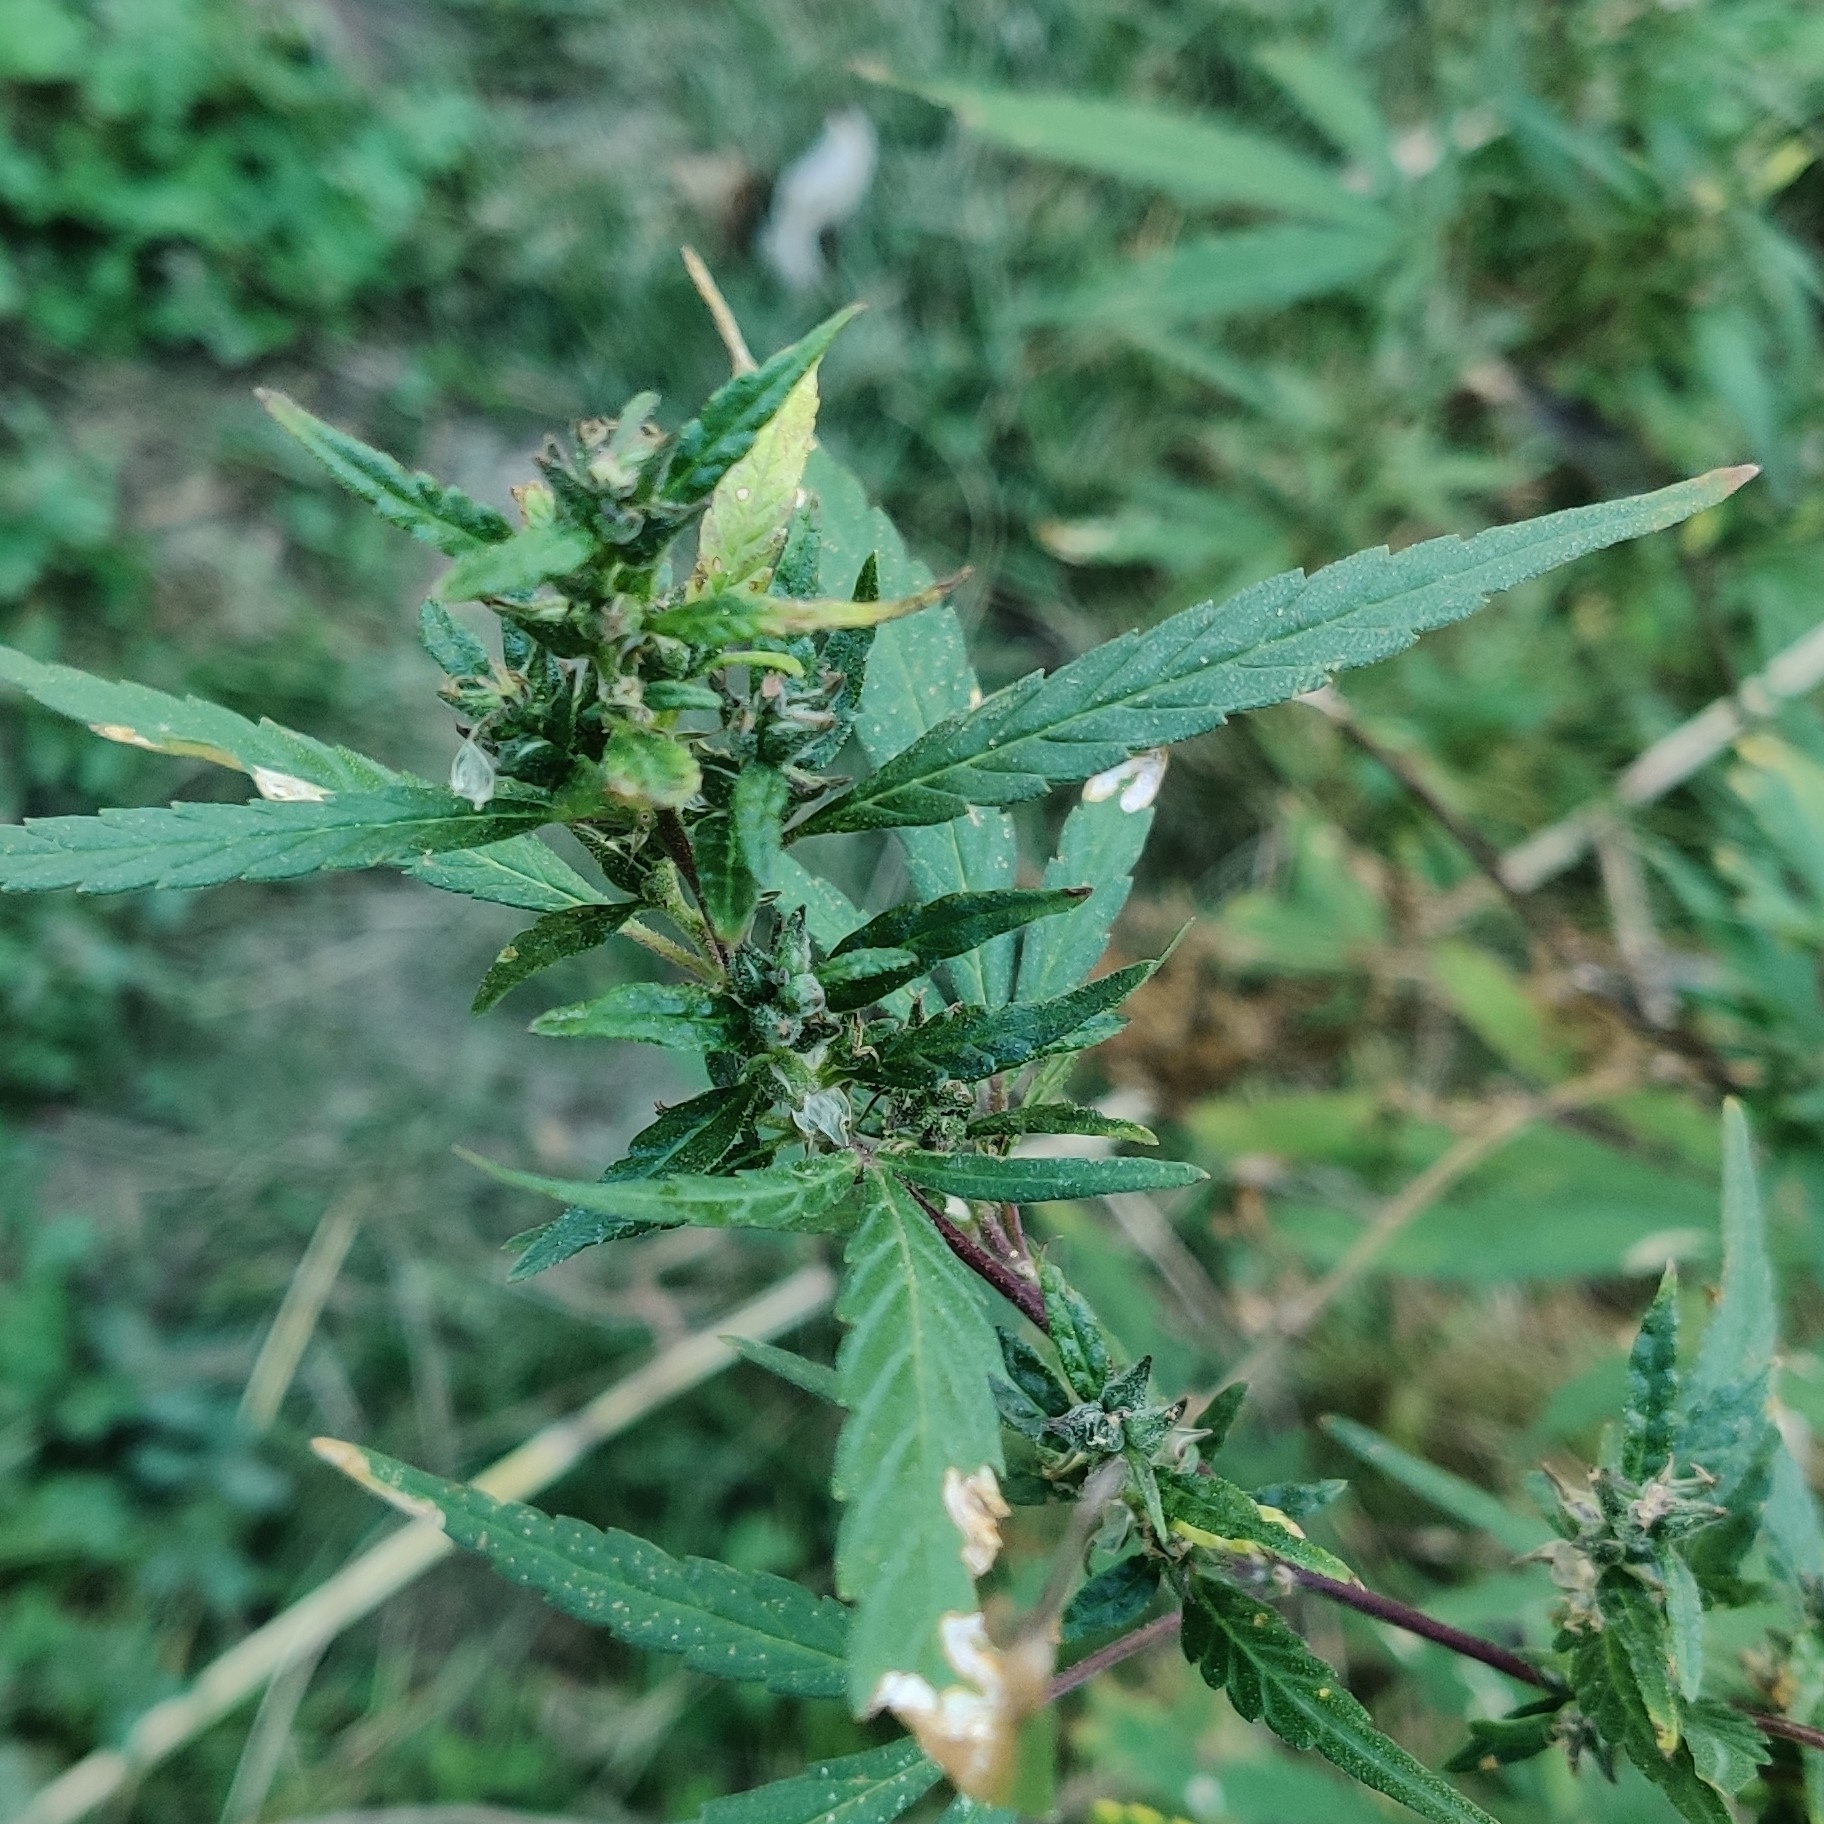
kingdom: Plantae
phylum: Tracheophyta
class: Magnoliopsida
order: Rosales
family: Cannabaceae
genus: Cannabis
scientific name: Cannabis sativa
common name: Hemp
